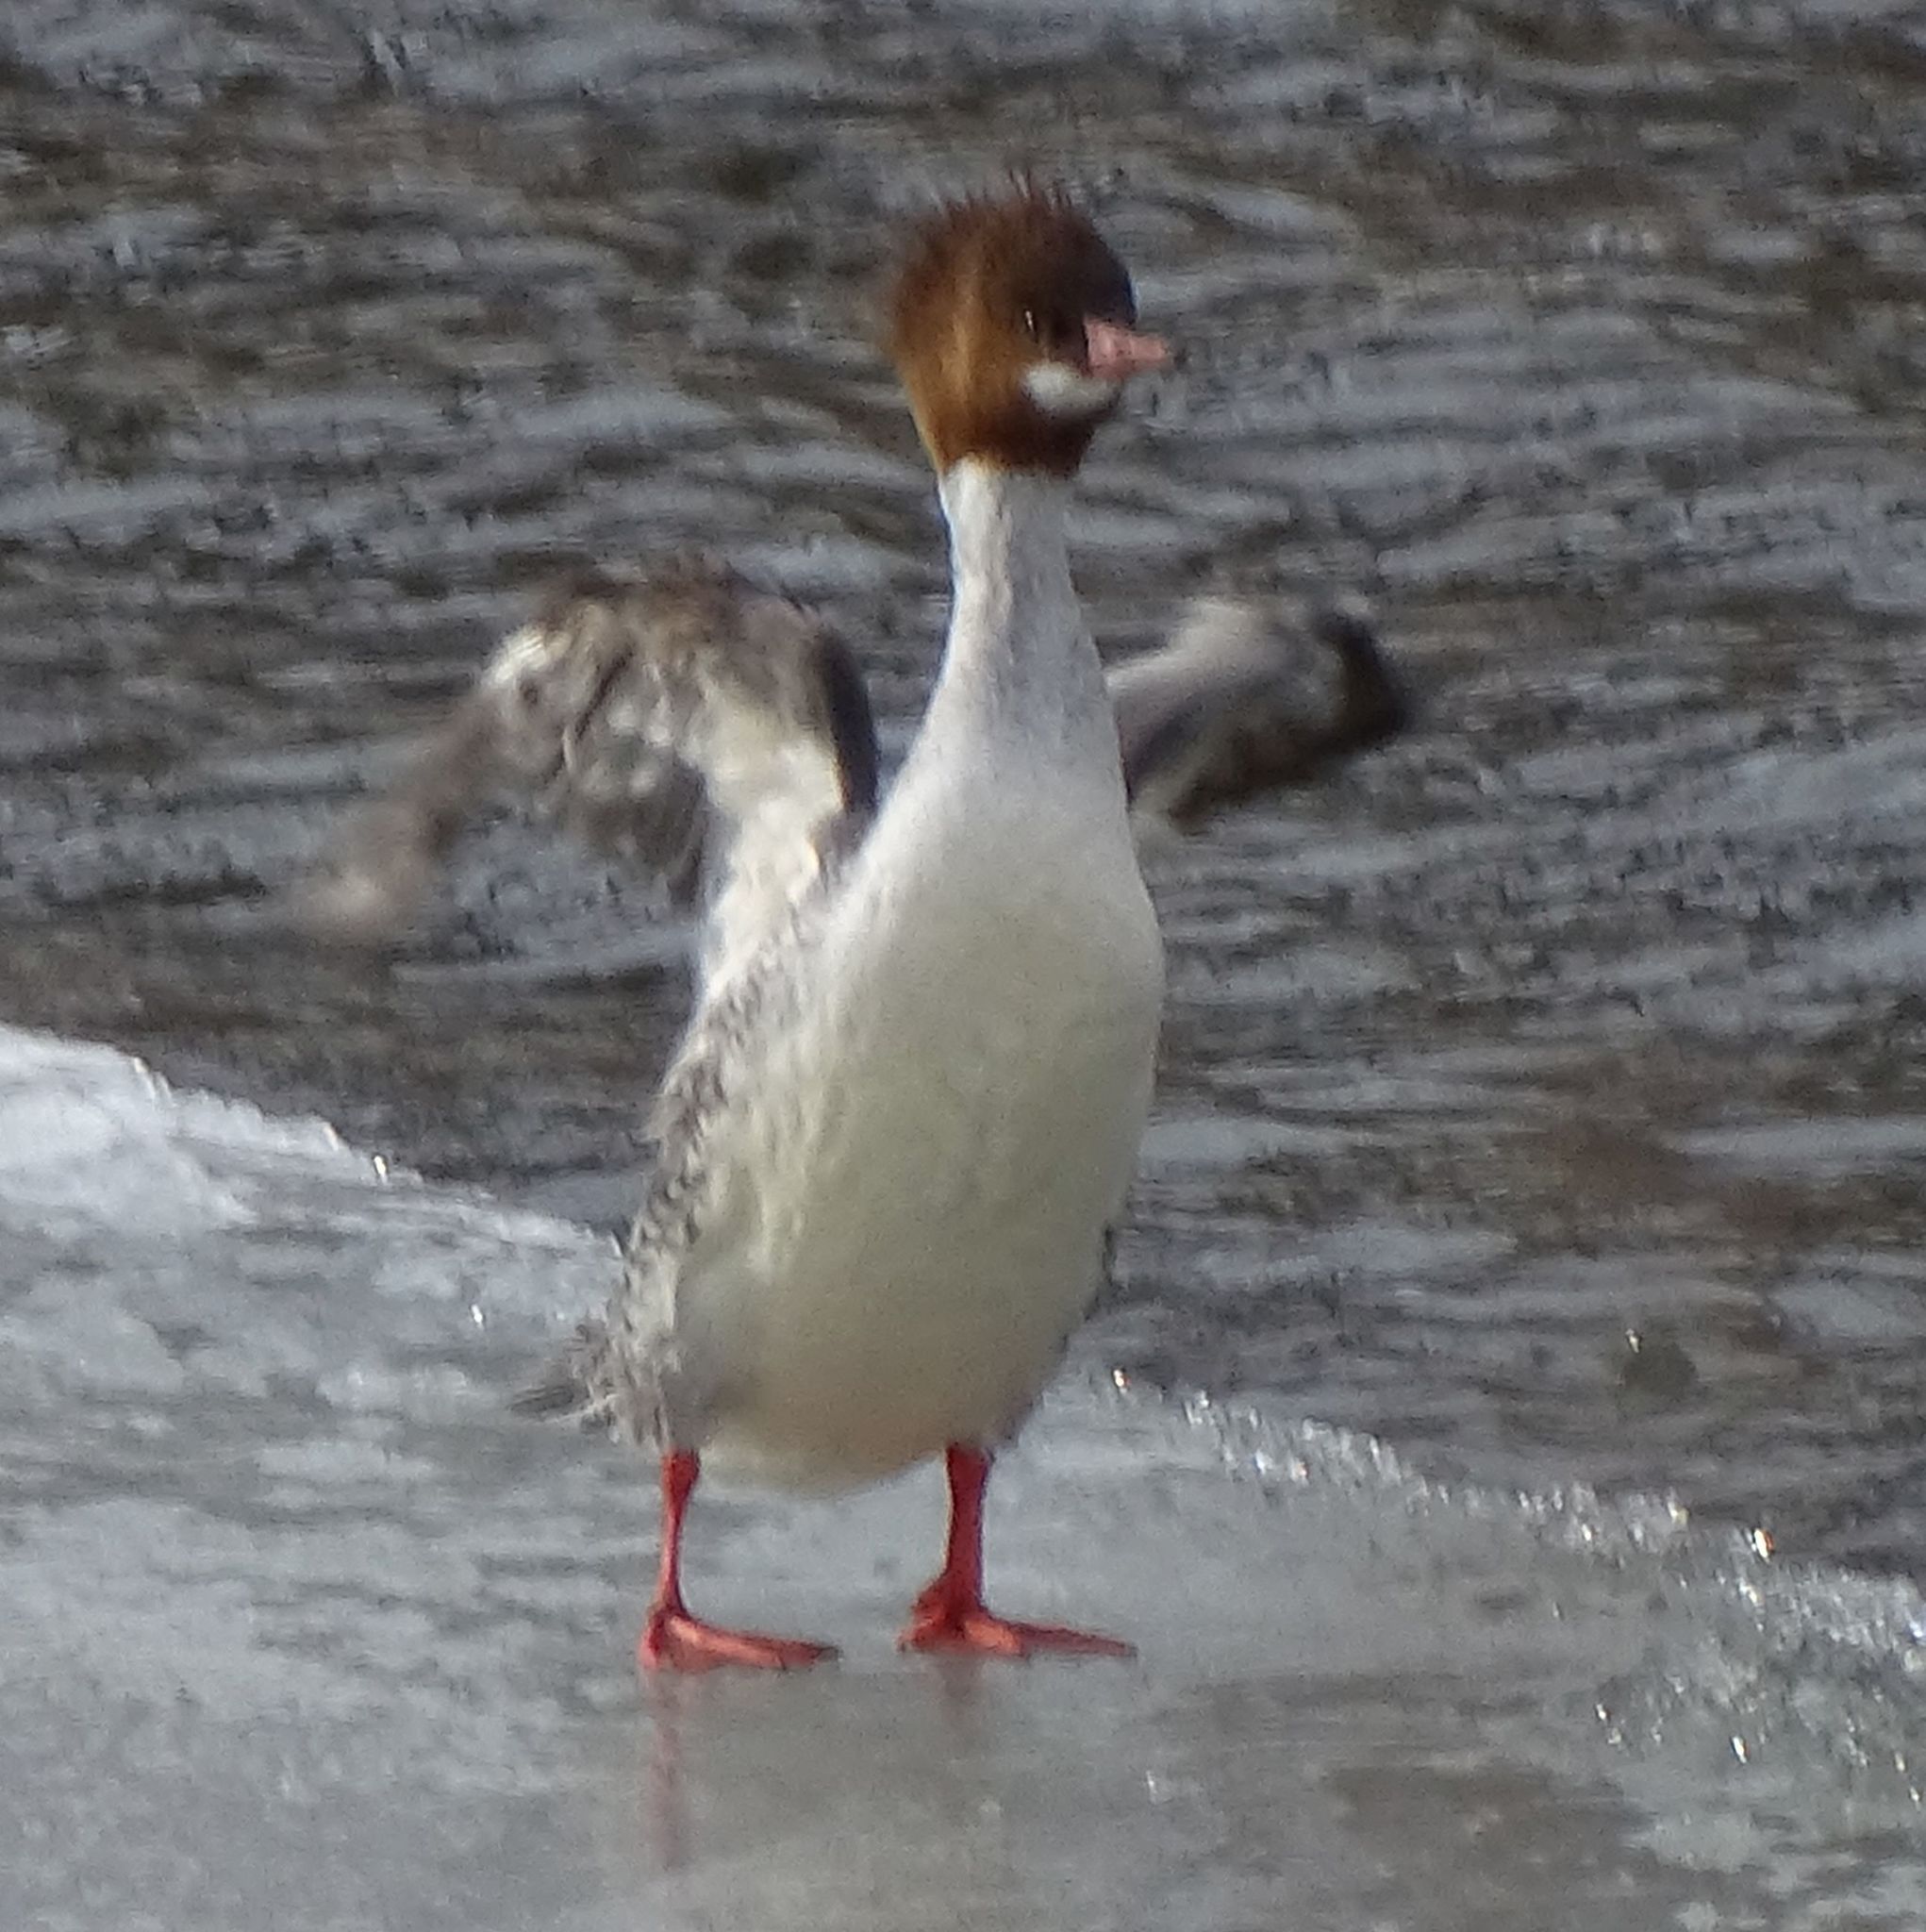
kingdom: Animalia
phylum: Chordata
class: Aves
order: Anseriformes
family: Anatidae
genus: Mergus
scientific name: Mergus merganser
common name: Common merganser
